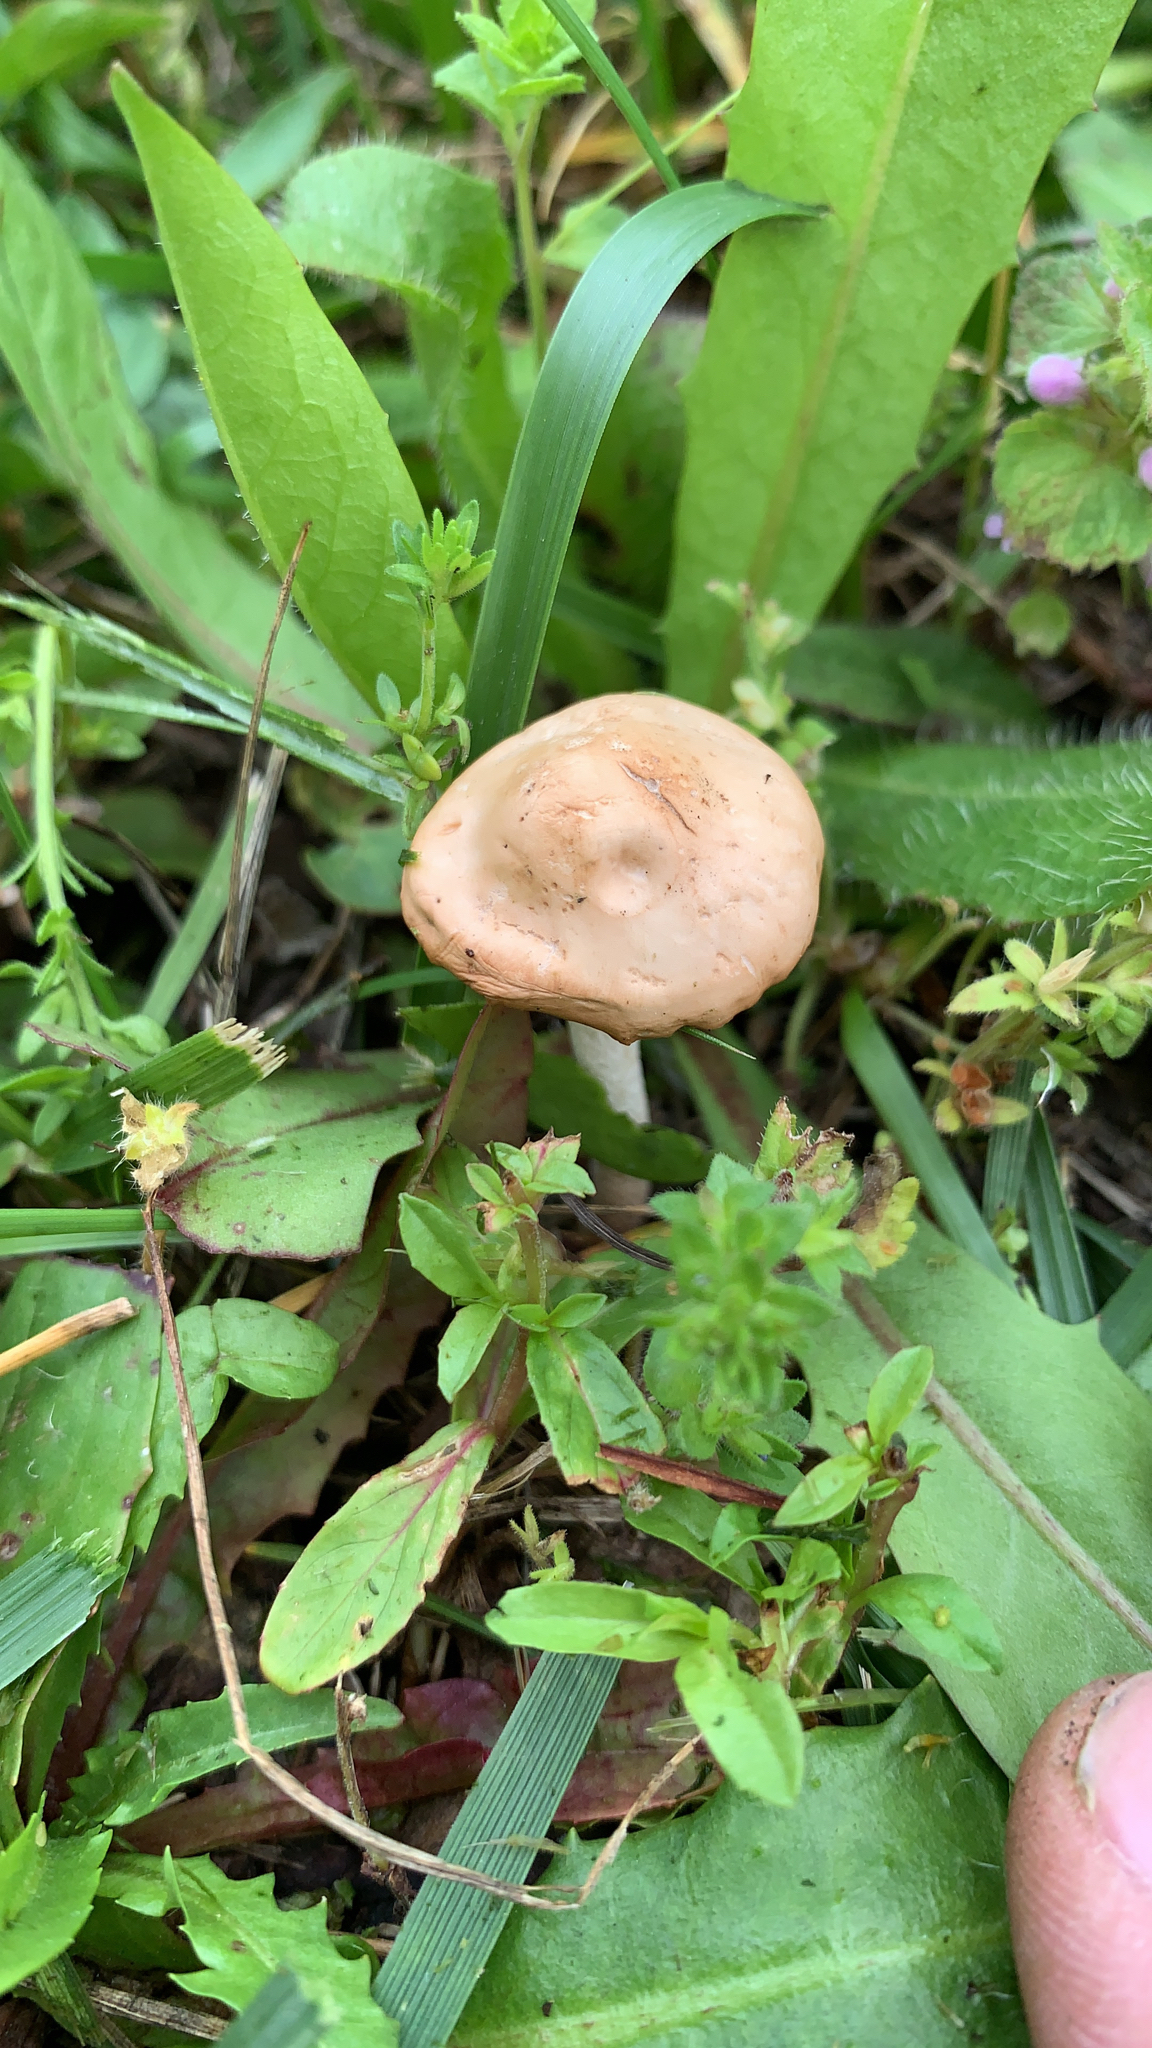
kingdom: Fungi
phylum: Basidiomycota
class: Agaricomycetes
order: Agaricales
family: Marasmiaceae
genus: Marasmius
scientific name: Marasmius oreades
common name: Fairy ring champignon
